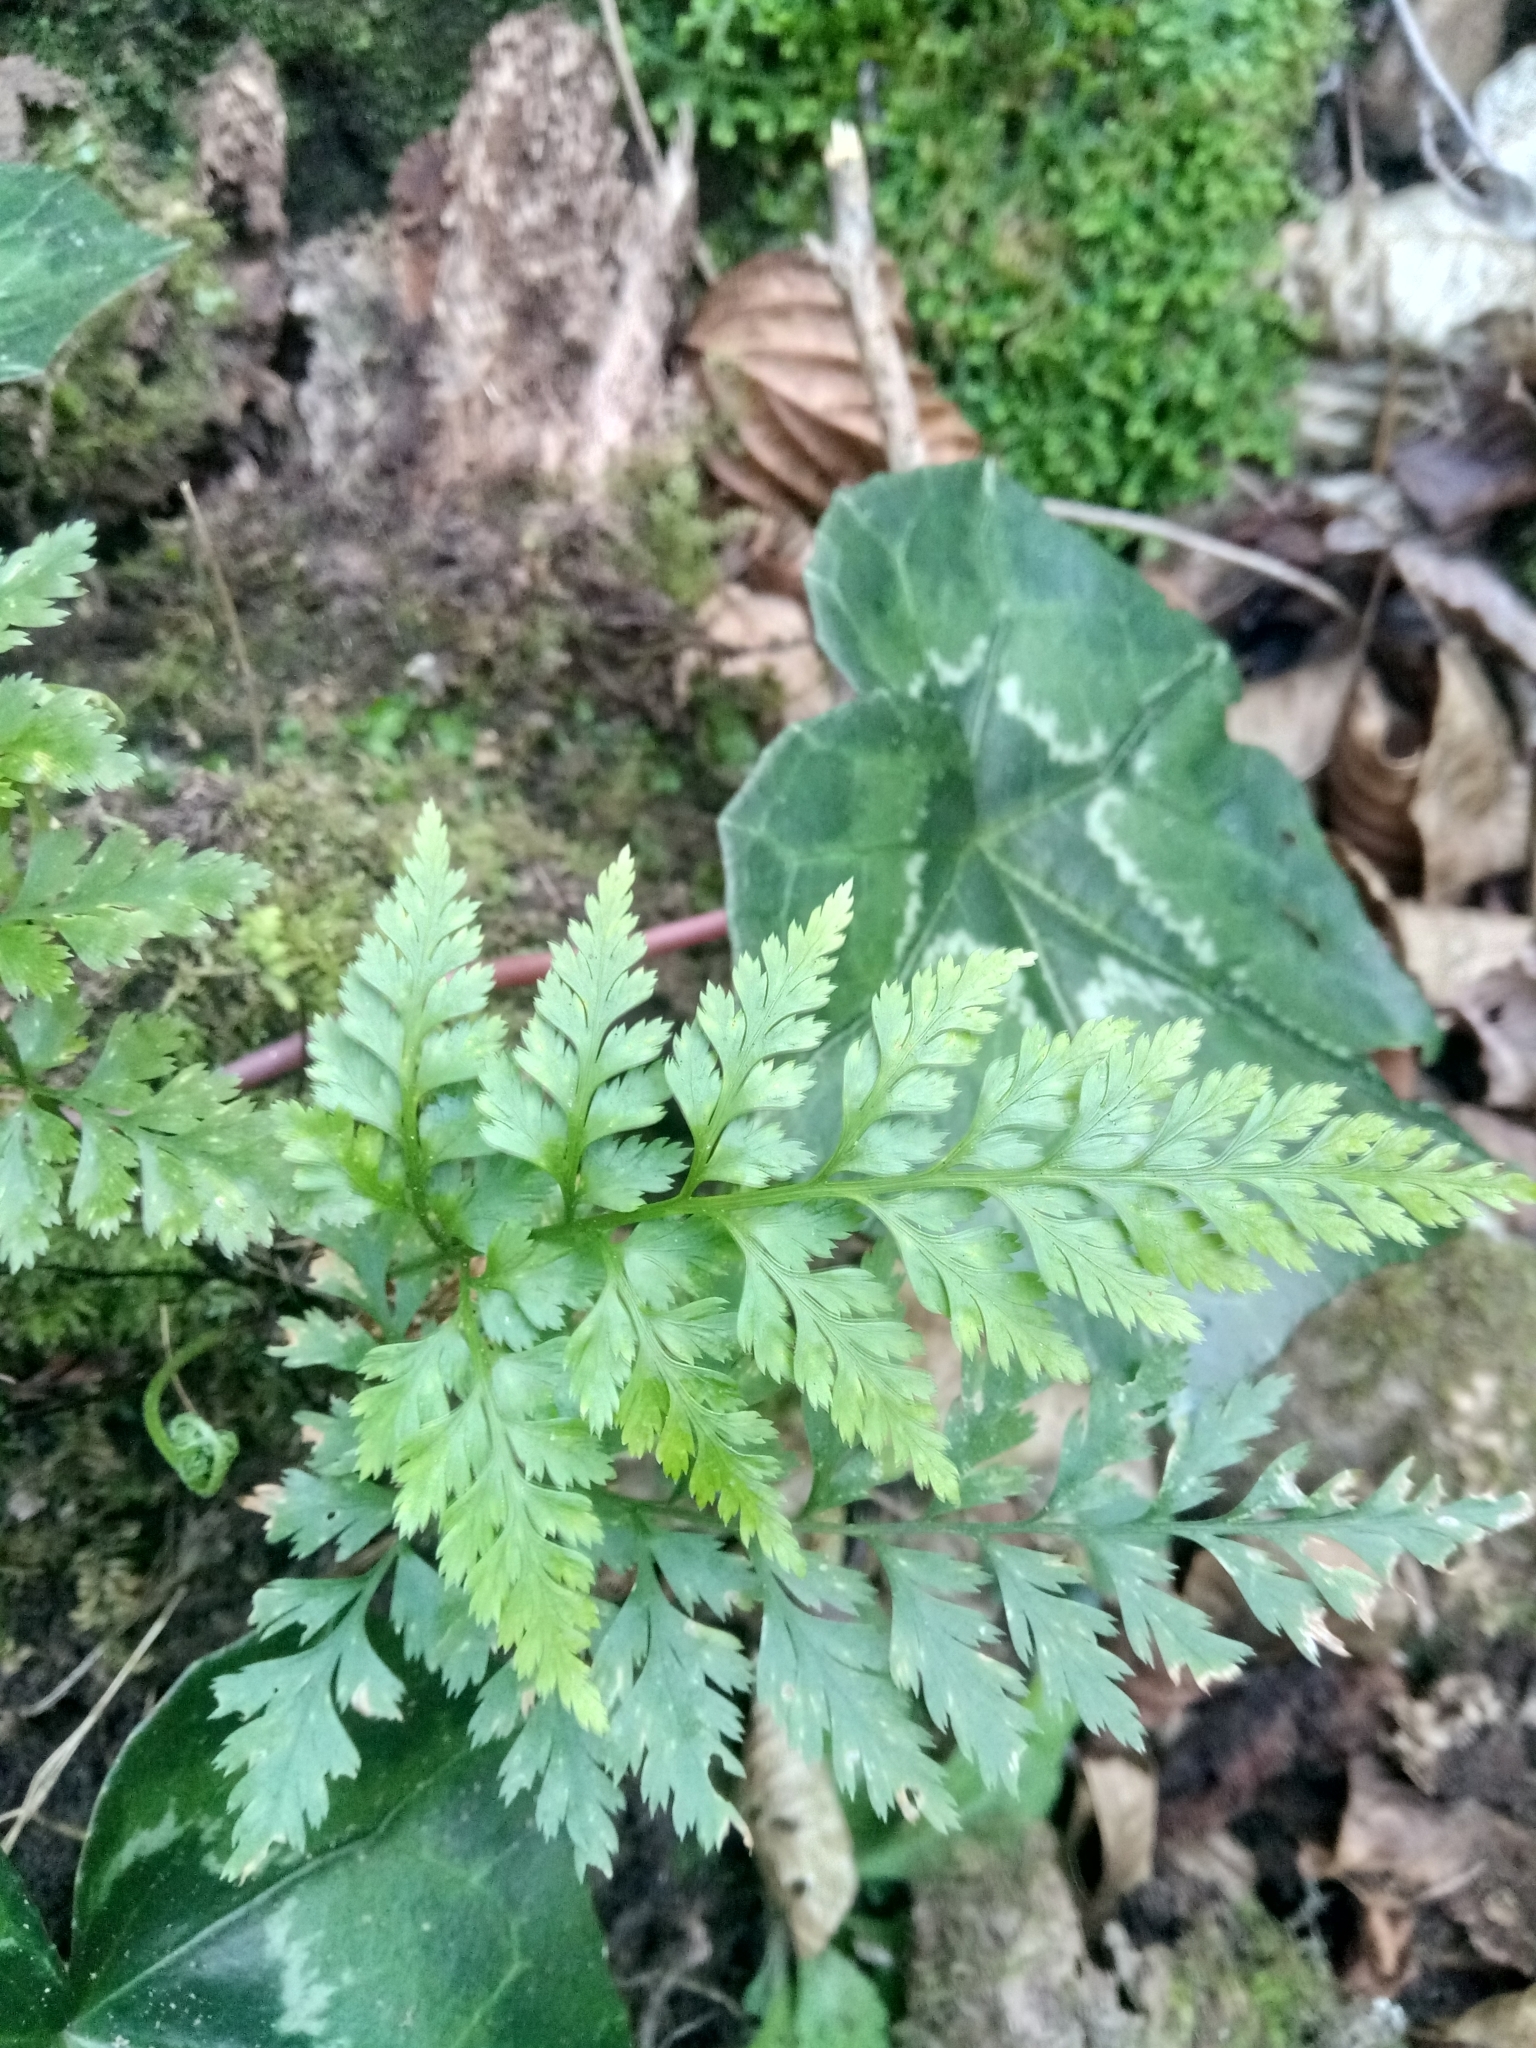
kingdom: Plantae
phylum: Tracheophyta
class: Polypodiopsida
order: Polypodiales
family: Aspleniaceae
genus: Asplenium
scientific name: Asplenium onopteris
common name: Irish spleenwort
